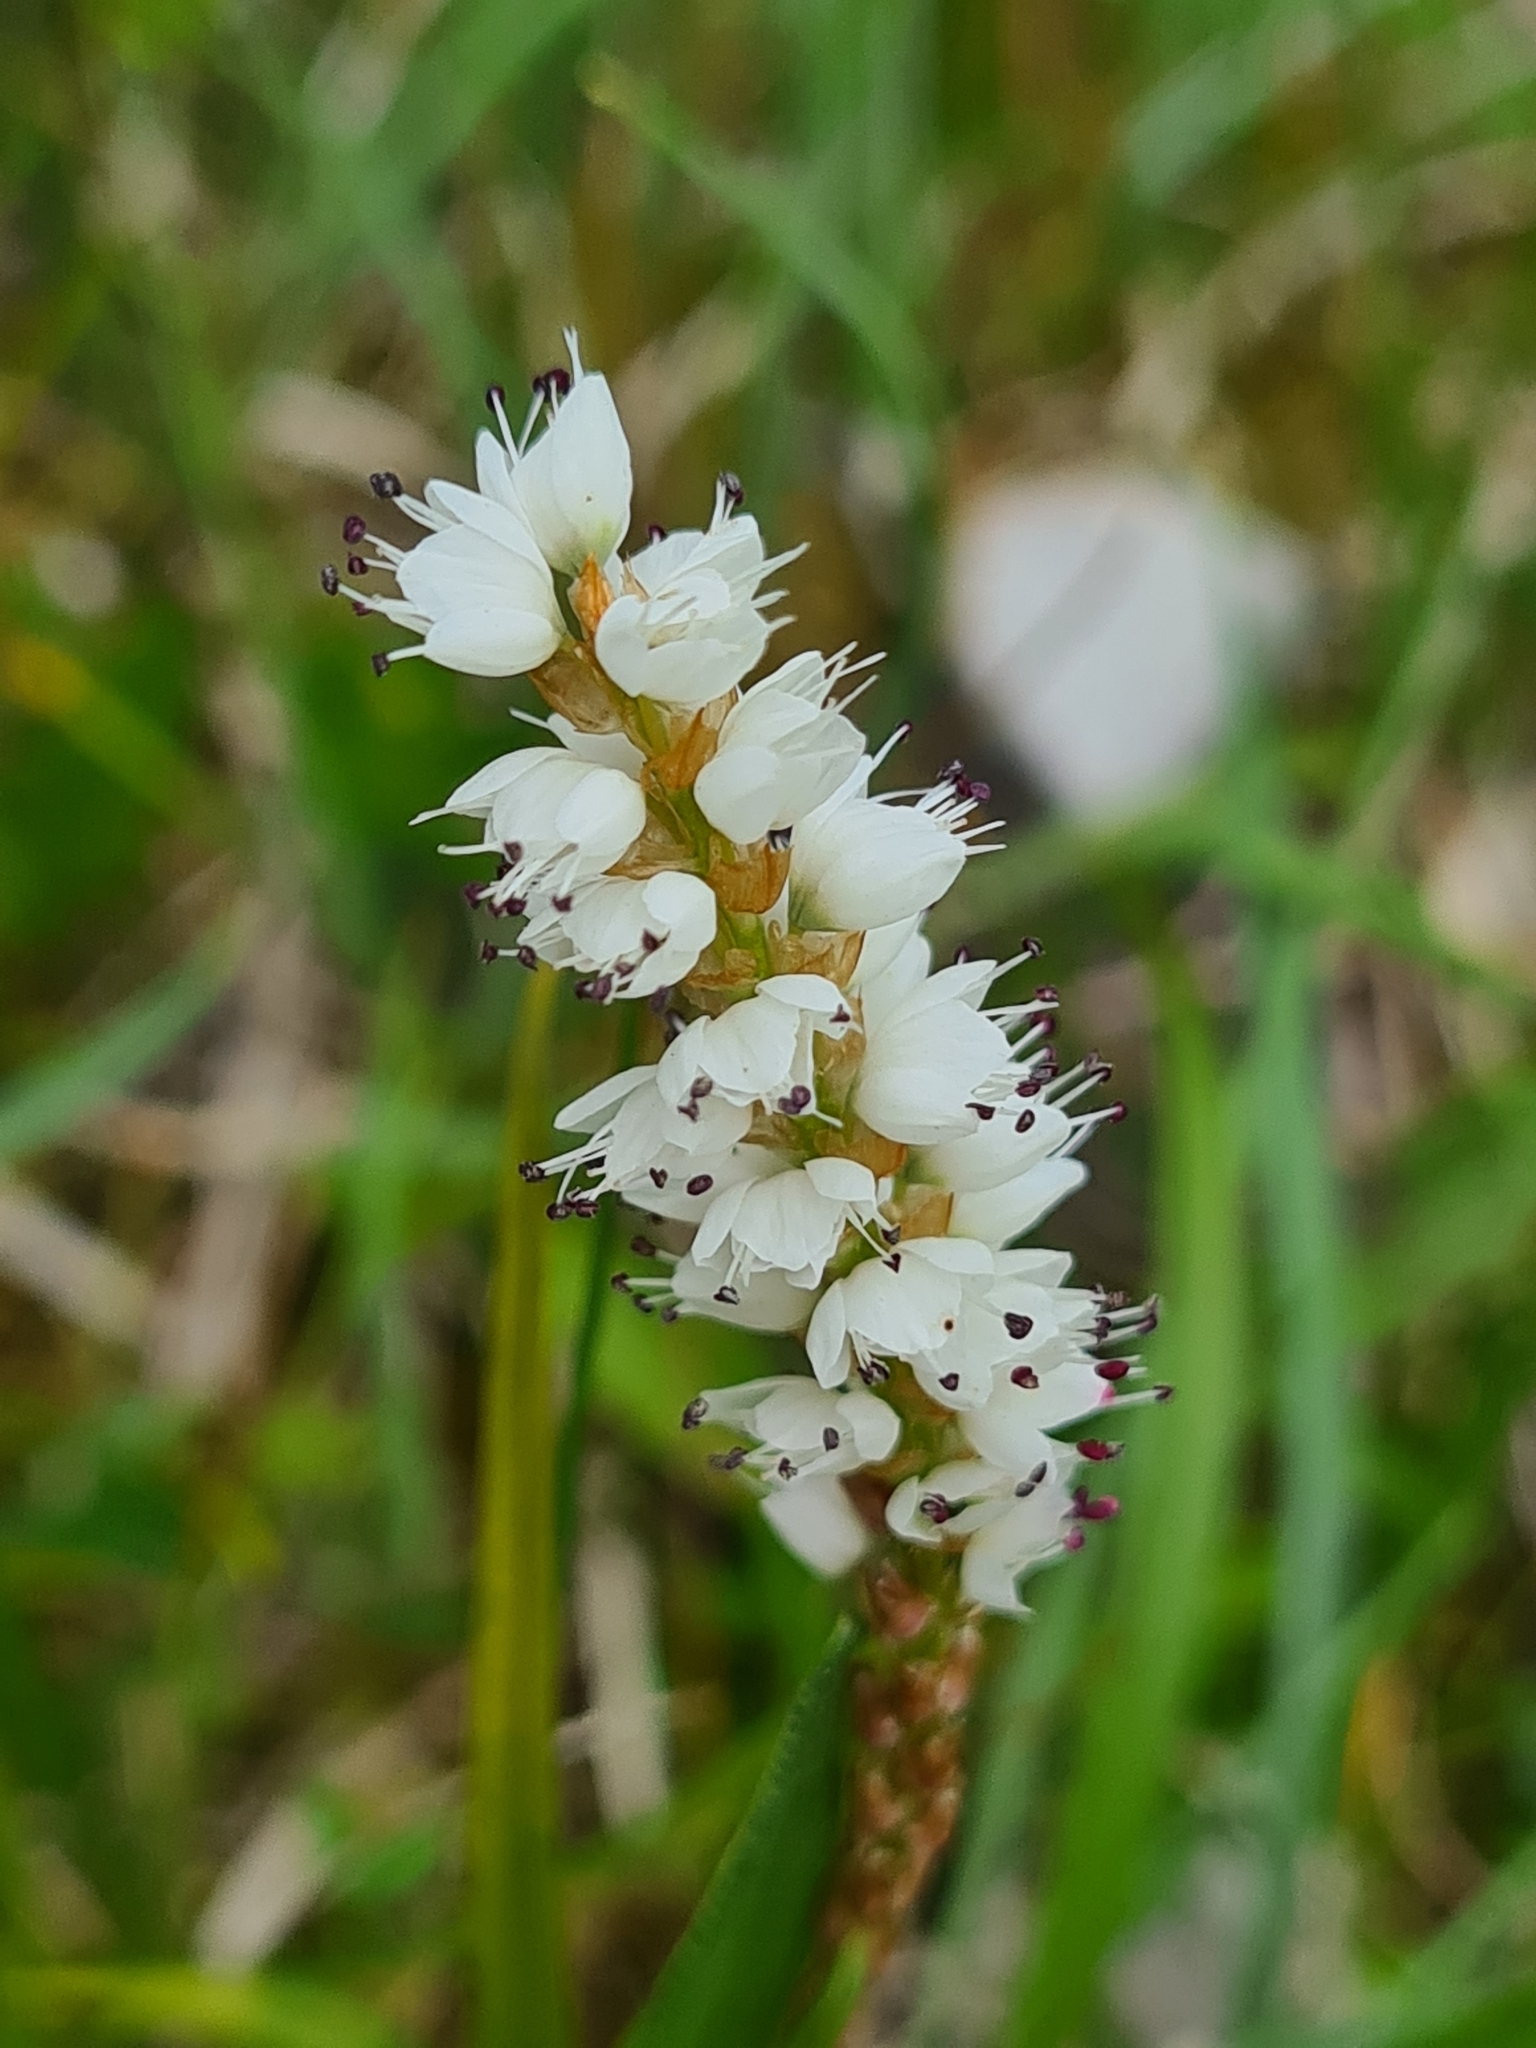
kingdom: Plantae
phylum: Tracheophyta
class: Magnoliopsida
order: Caryophyllales
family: Polygonaceae
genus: Bistorta
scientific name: Bistorta vivipara
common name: Alpine bistort
